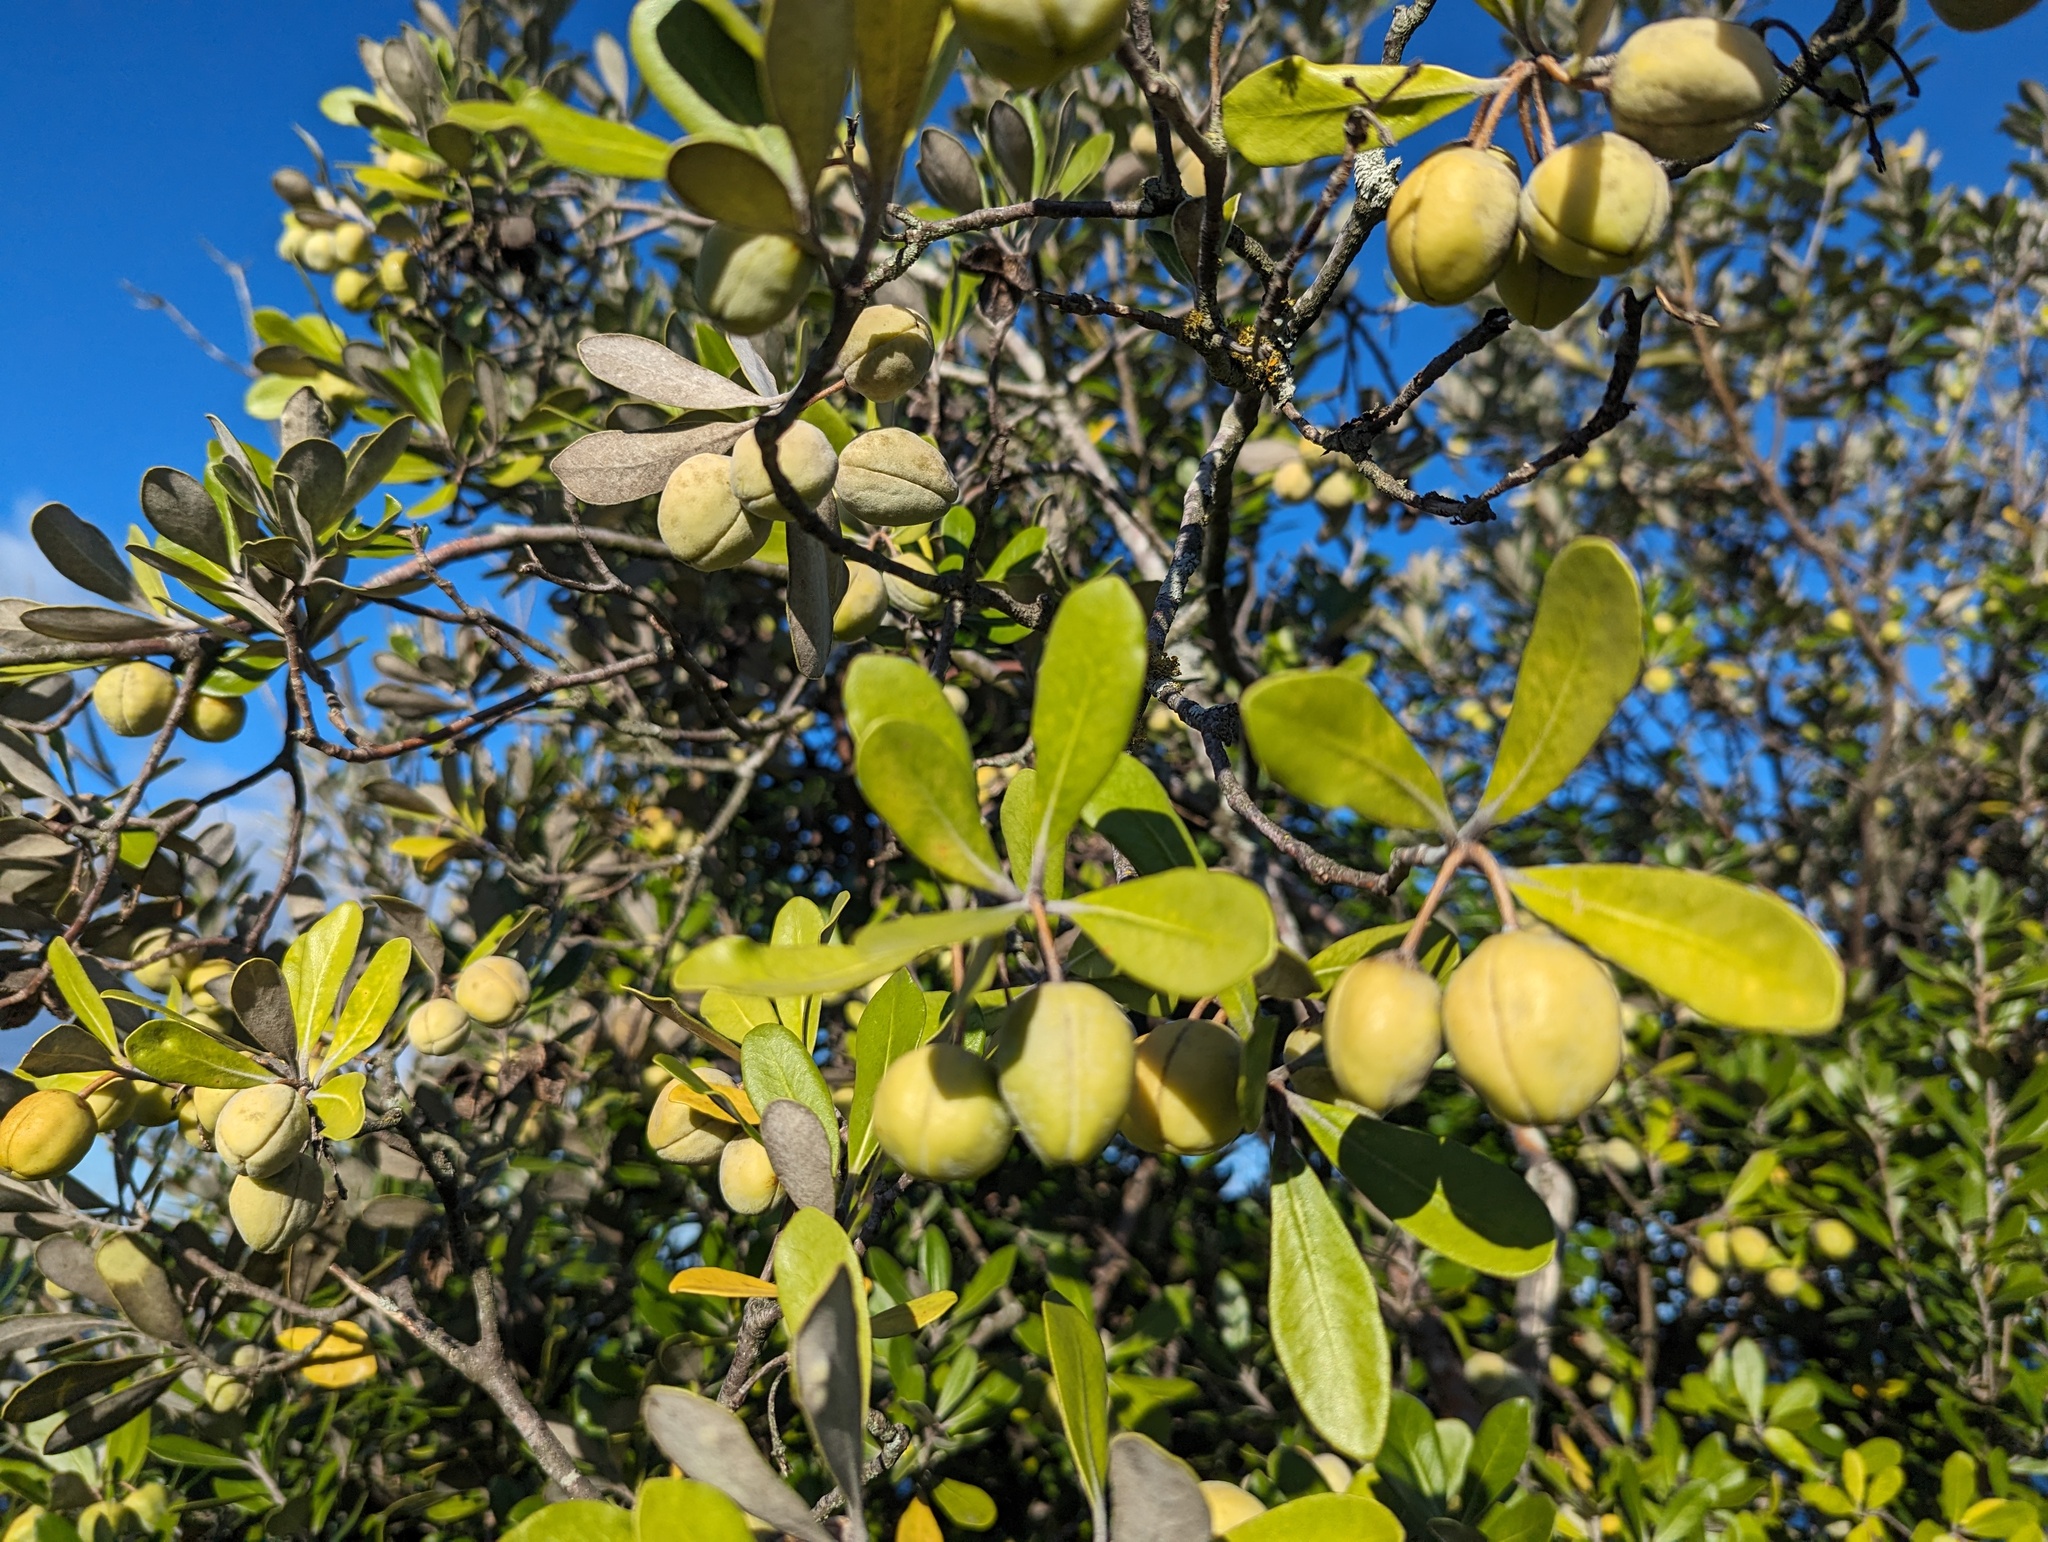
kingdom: Plantae
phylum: Tracheophyta
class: Magnoliopsida
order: Apiales
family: Pittosporaceae
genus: Pittosporum
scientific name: Pittosporum crassifolium
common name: Karo
